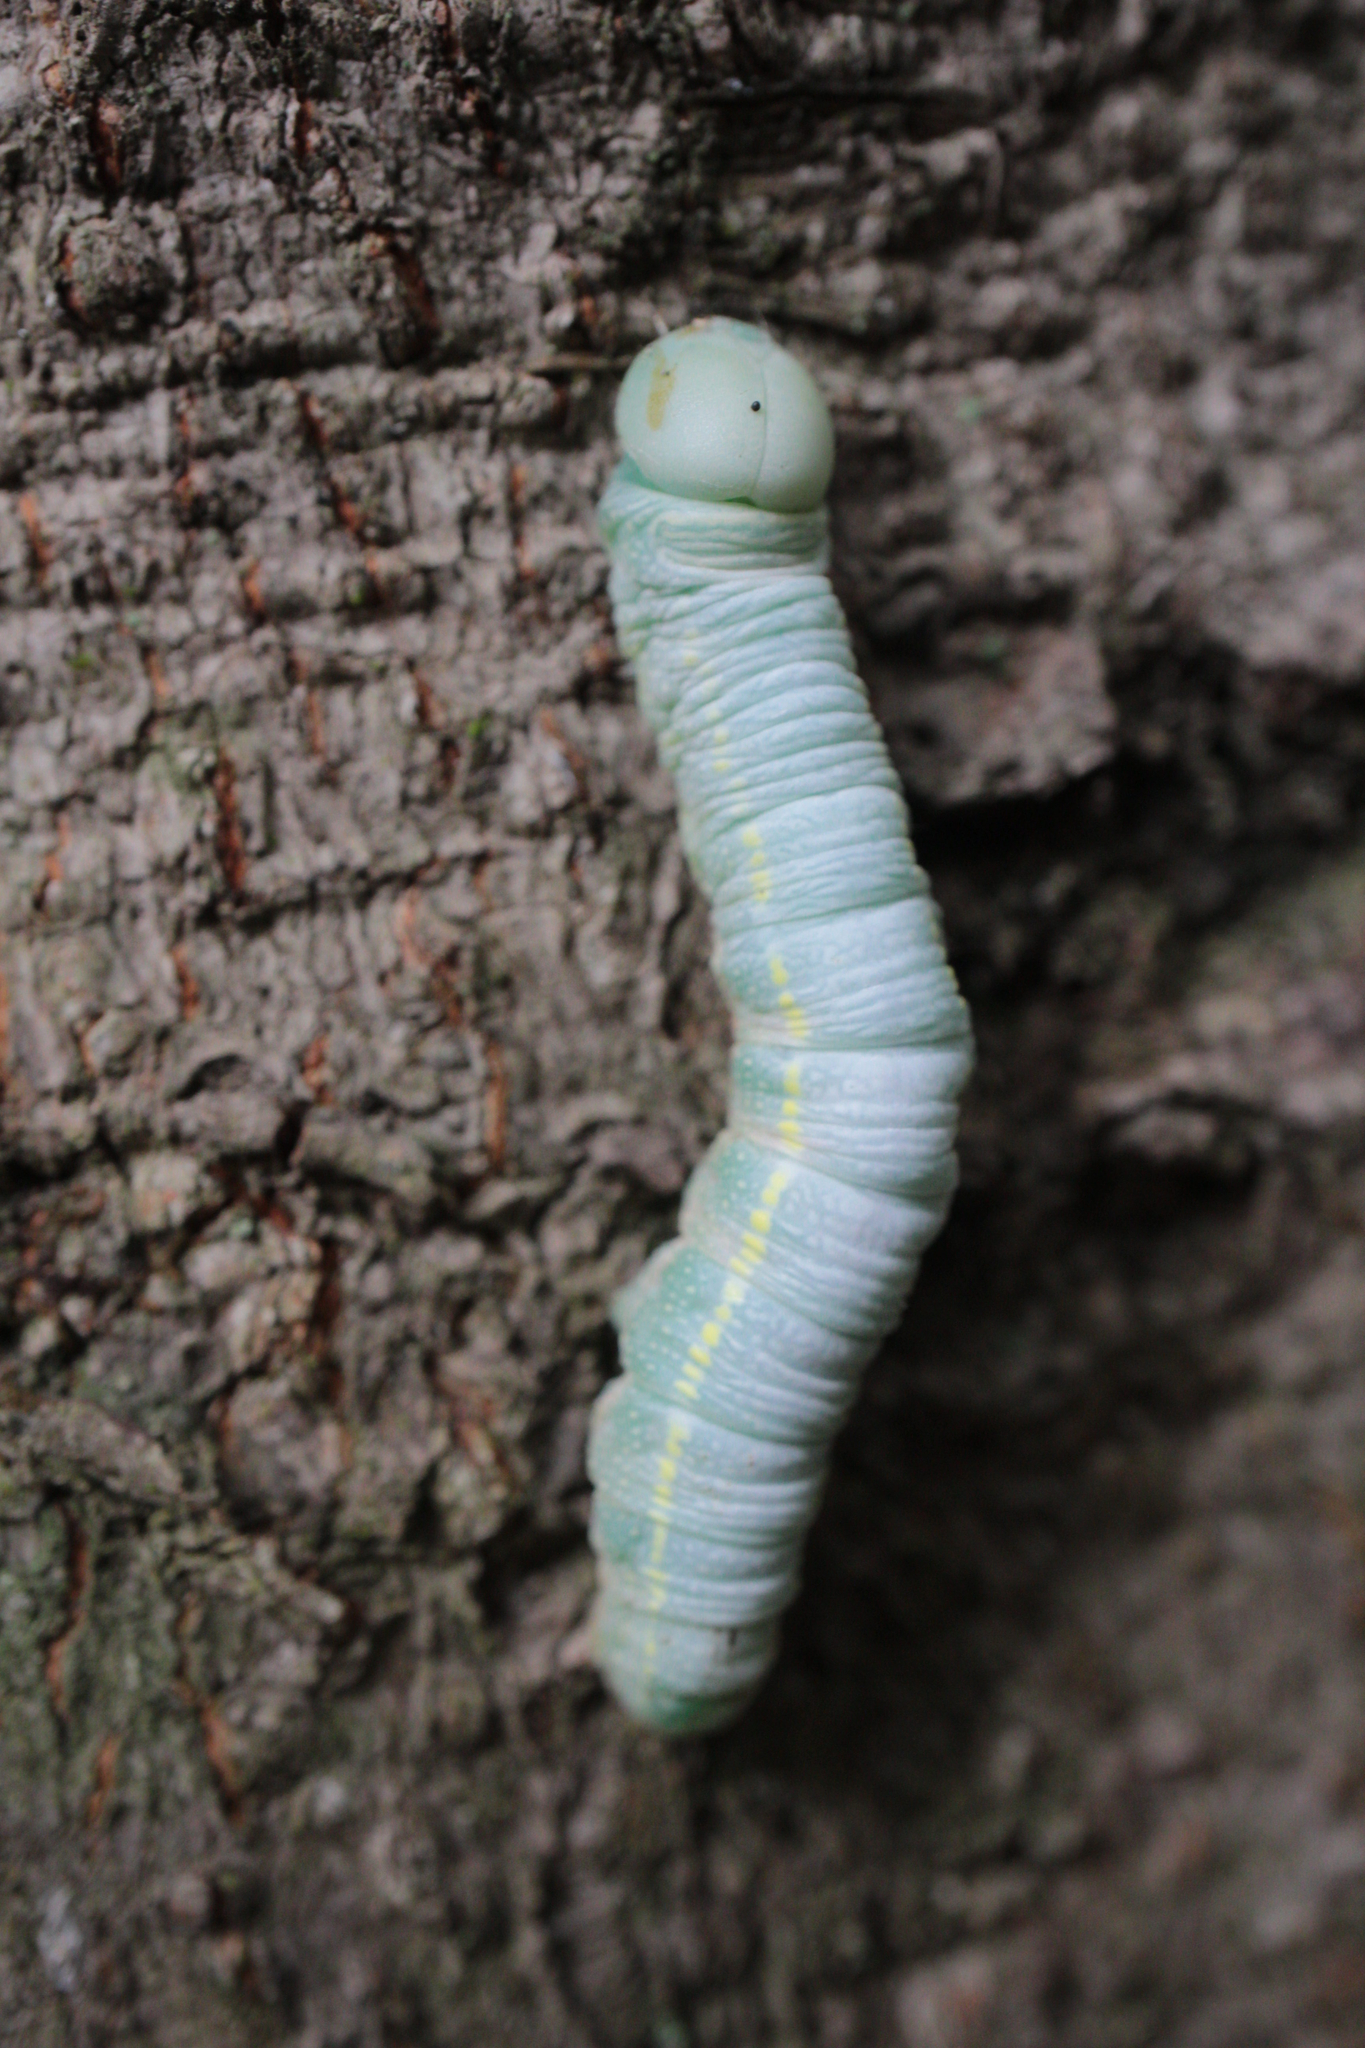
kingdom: Animalia
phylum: Arthropoda
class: Insecta
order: Lepidoptera
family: Notodontidae
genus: Nadata
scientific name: Nadata gibbosa
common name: White-dotted prominent
